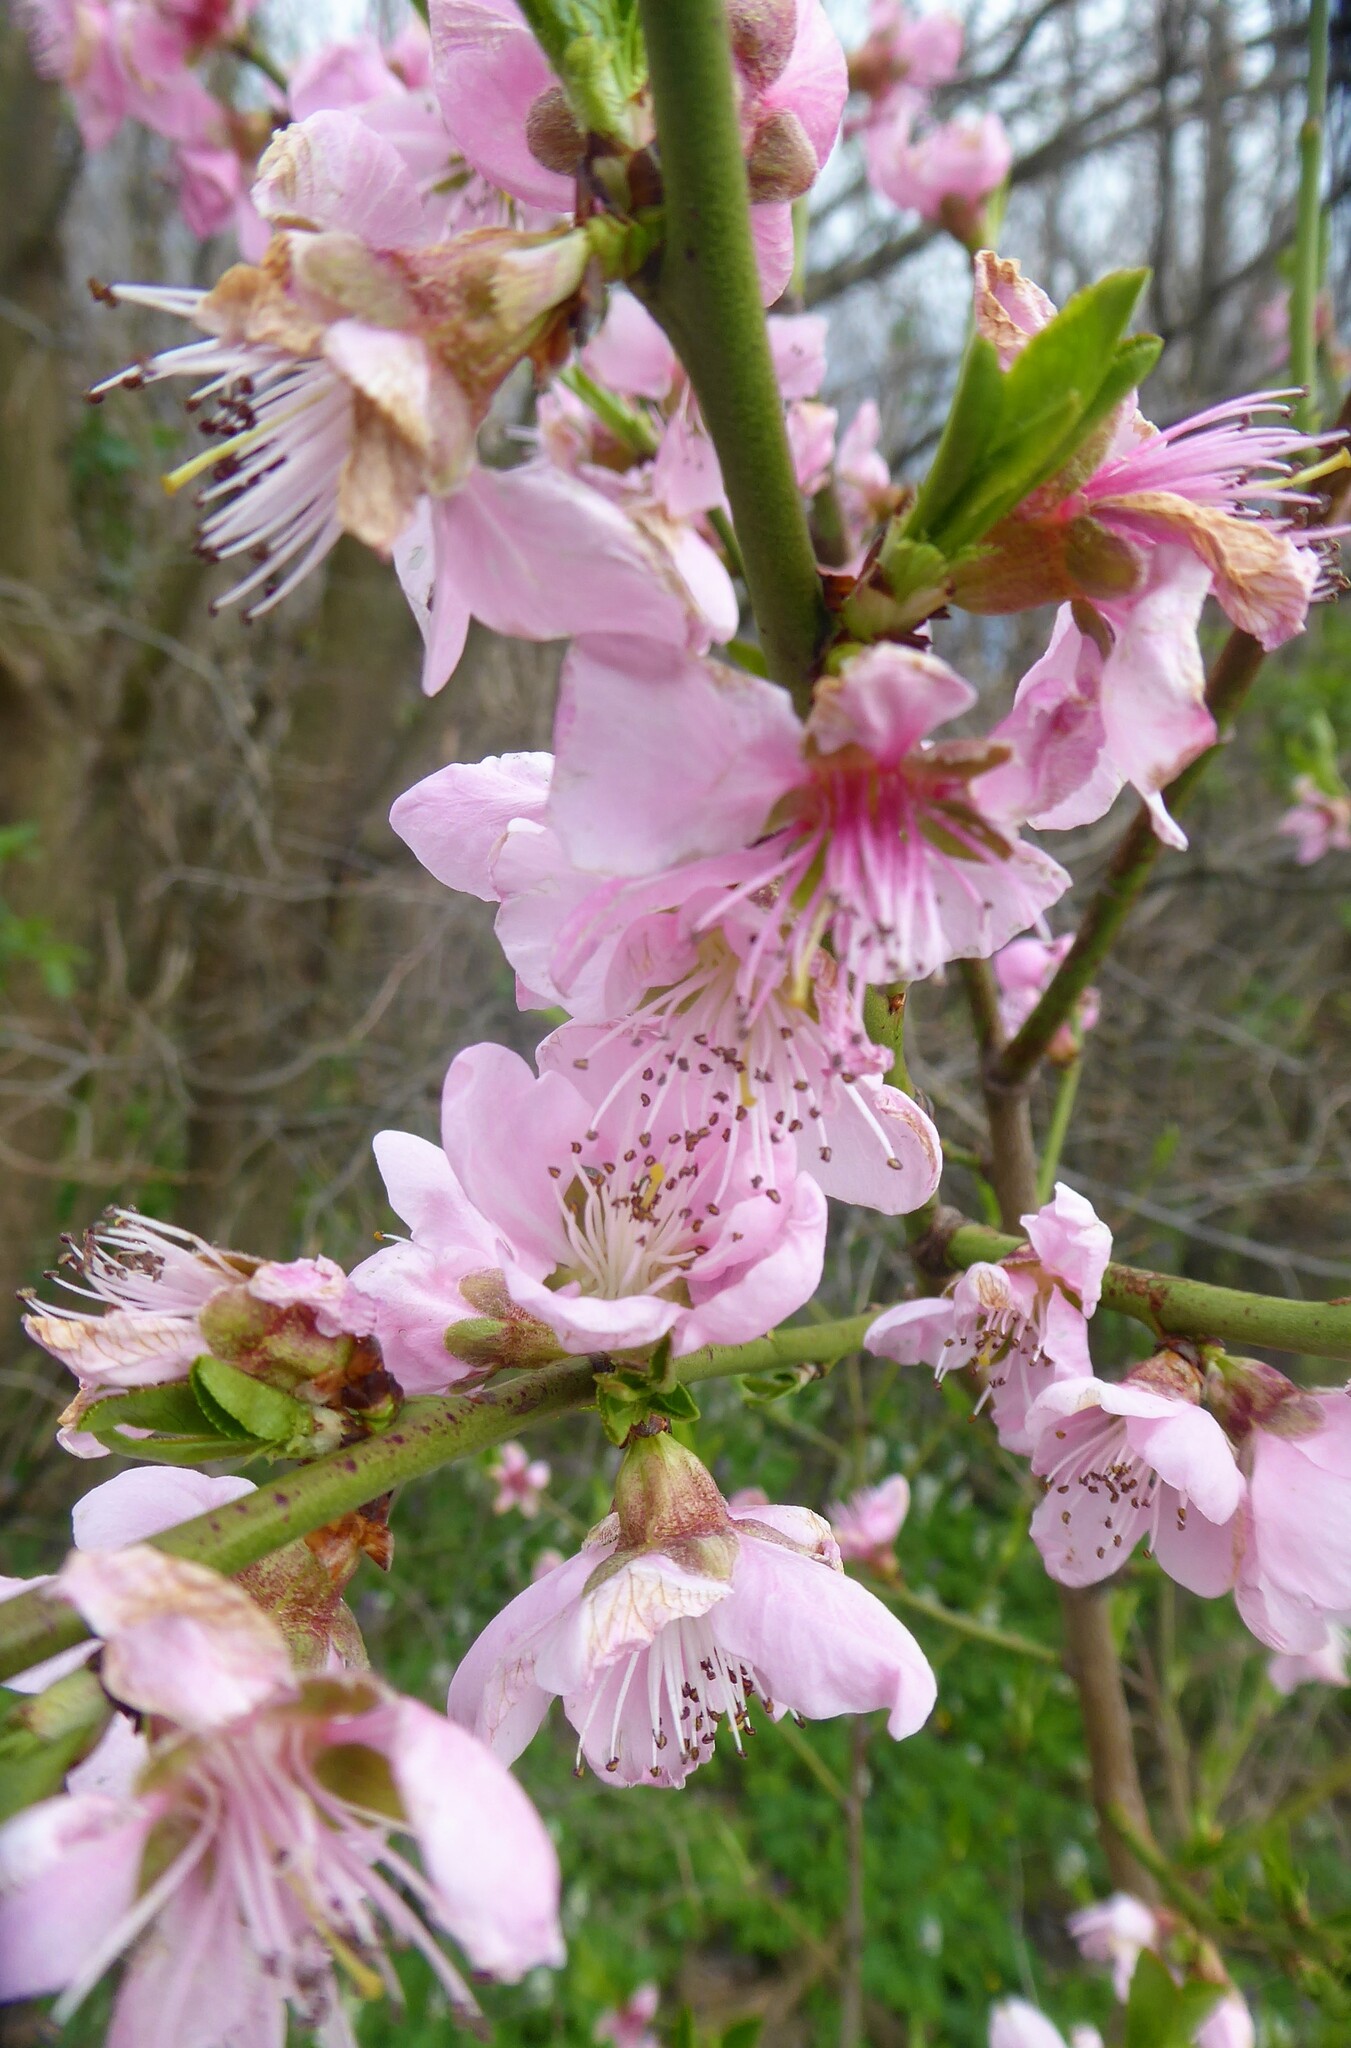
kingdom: Plantae
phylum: Tracheophyta
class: Magnoliopsida
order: Rosales
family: Rosaceae
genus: Prunus
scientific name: Prunus persica
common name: Peach
